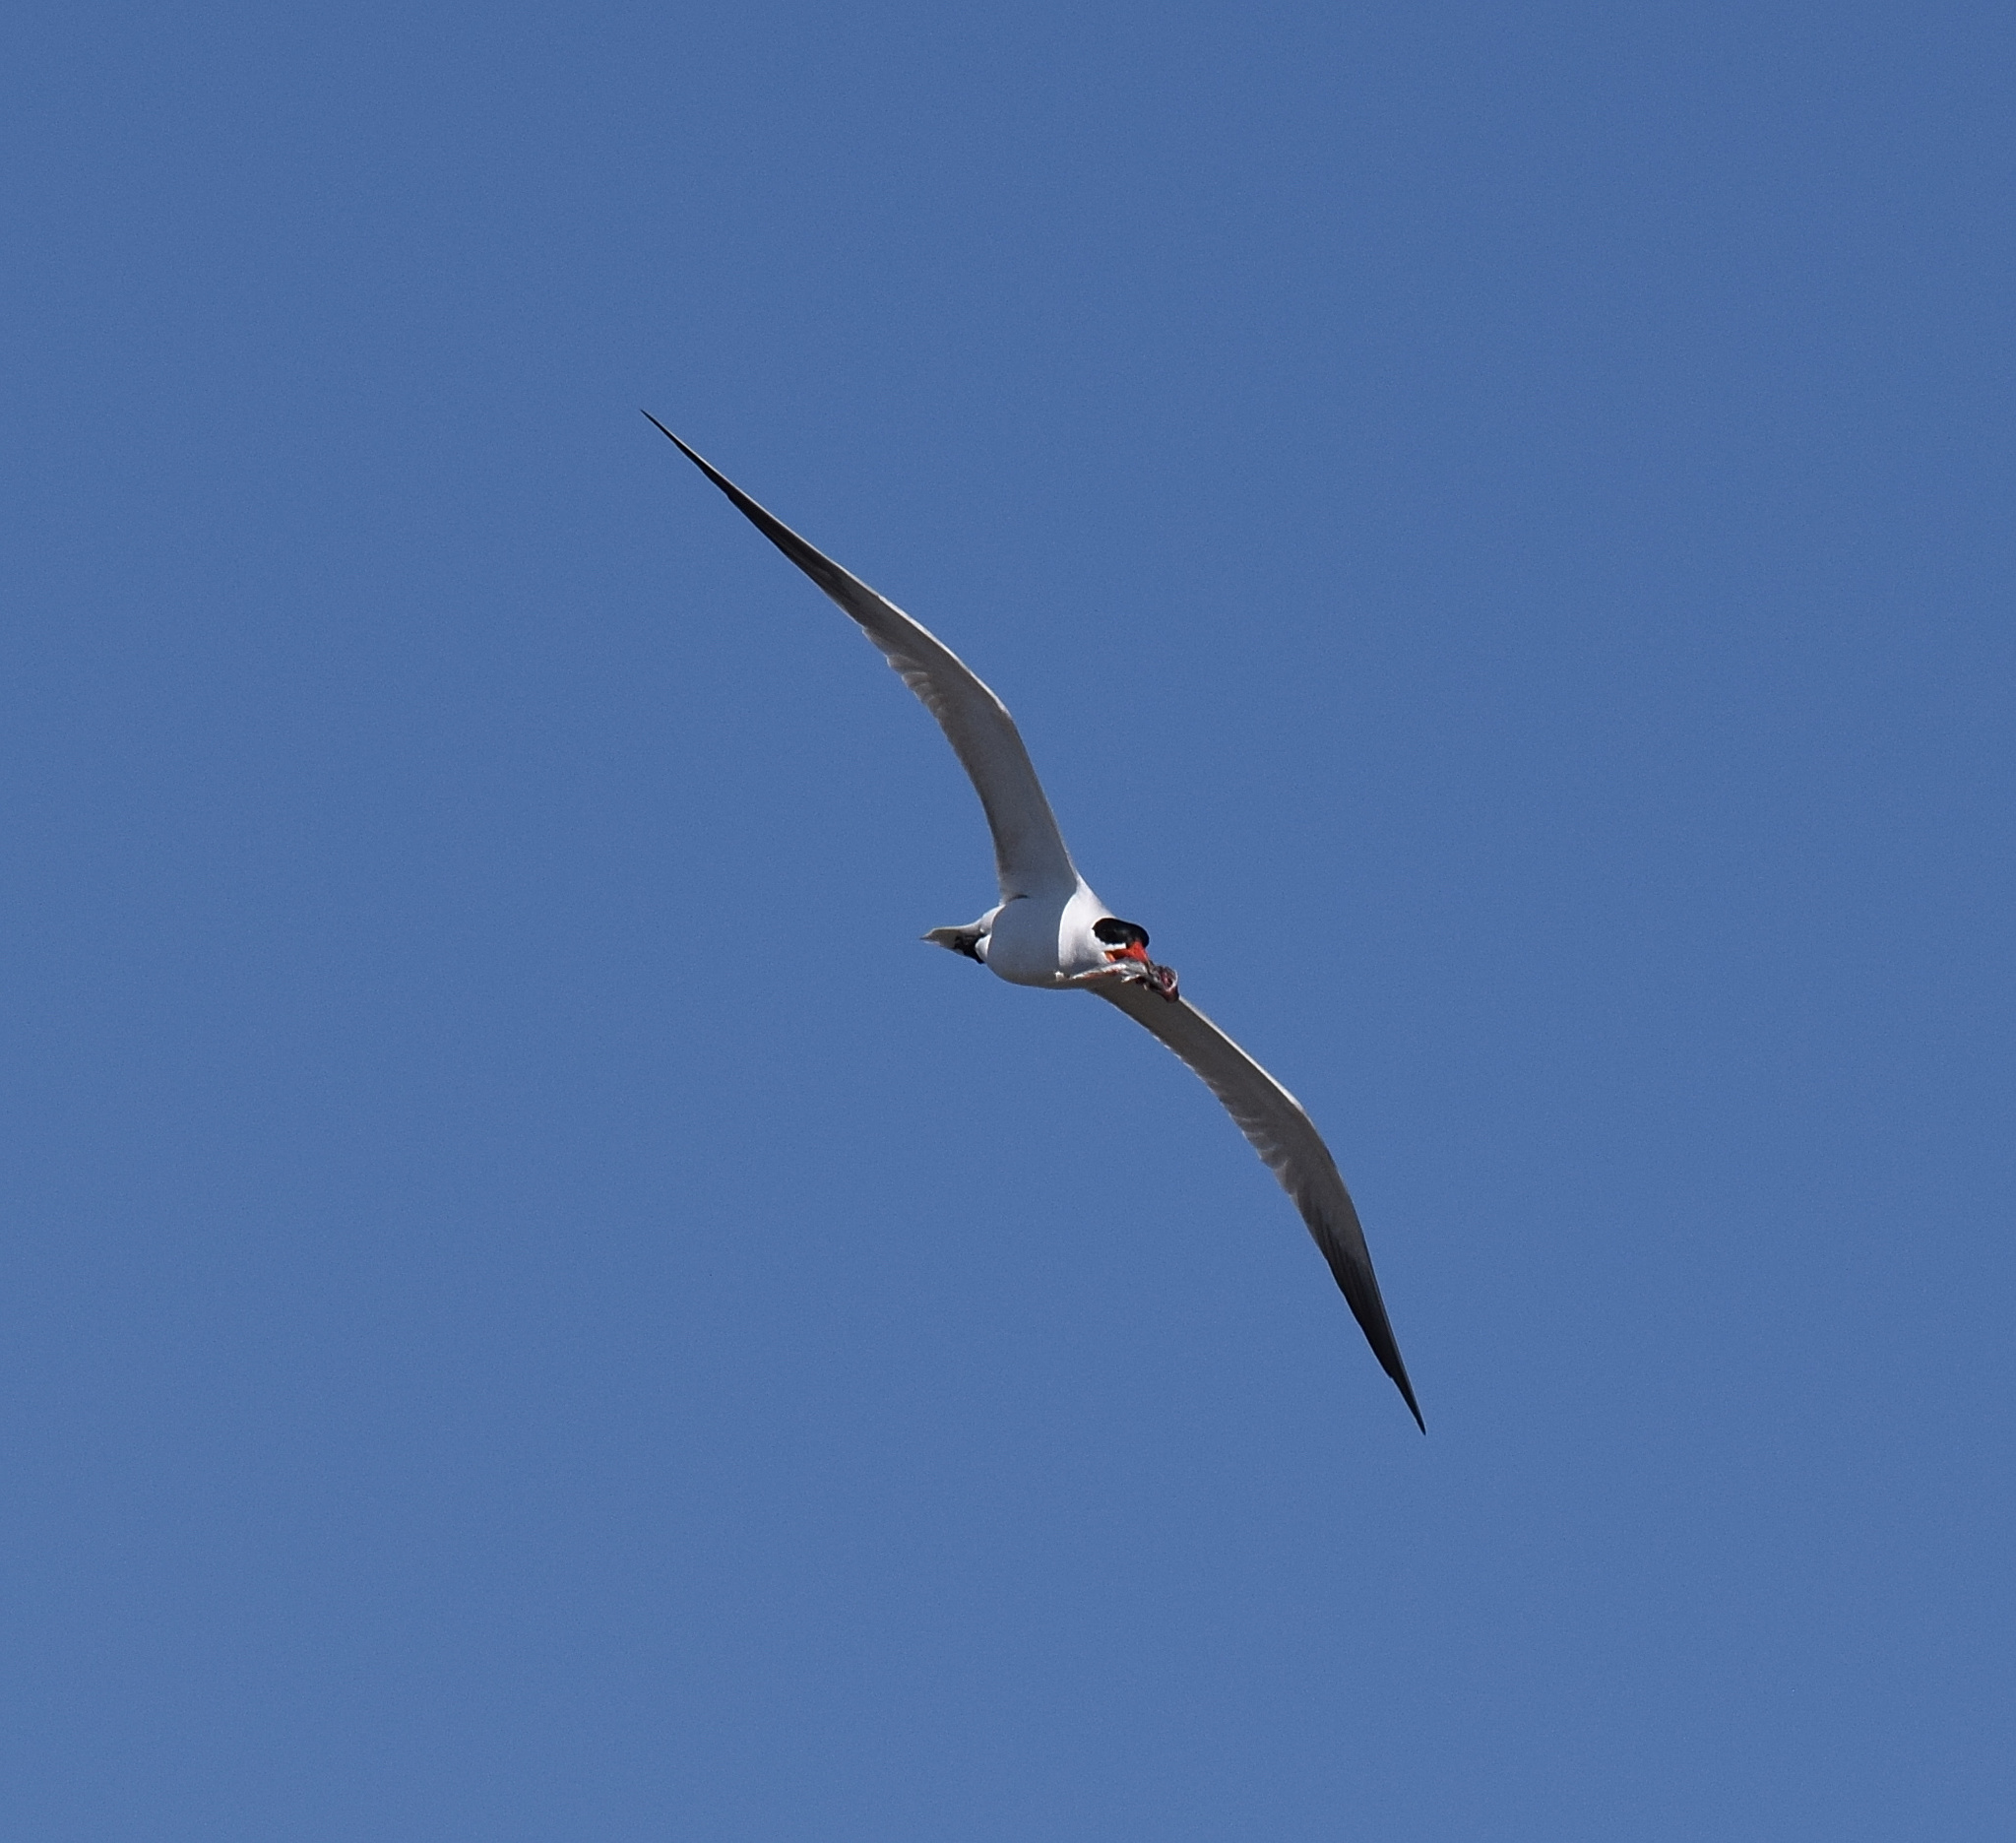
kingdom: Animalia
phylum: Chordata
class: Aves
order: Charadriiformes
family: Laridae
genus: Hydroprogne
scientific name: Hydroprogne caspia
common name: Caspian tern
